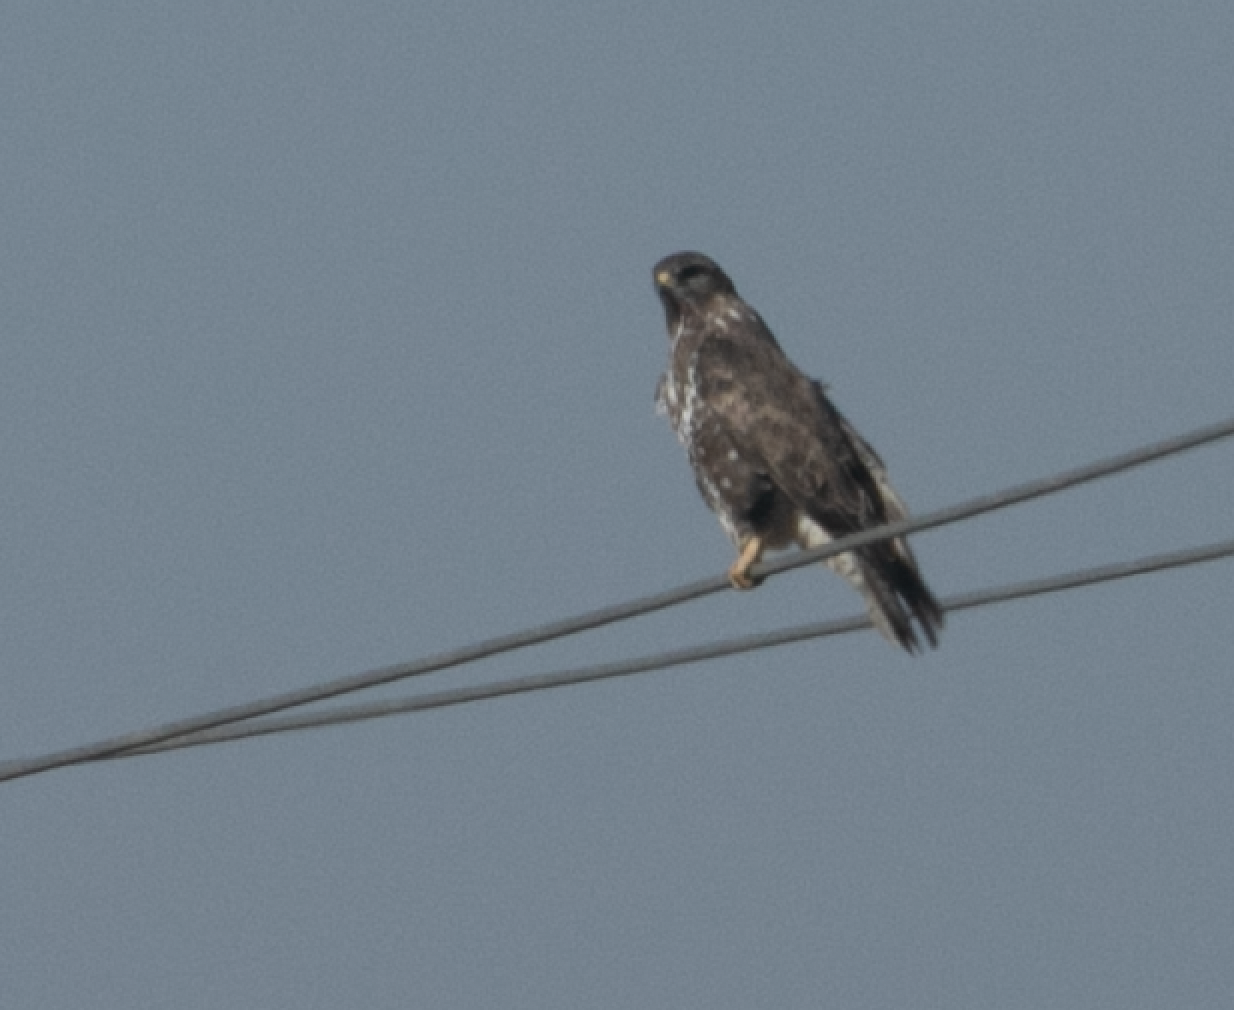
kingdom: Animalia
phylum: Chordata
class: Aves
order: Accipitriformes
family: Accipitridae
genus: Buteo
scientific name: Buteo buteo
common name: Common buzzard
